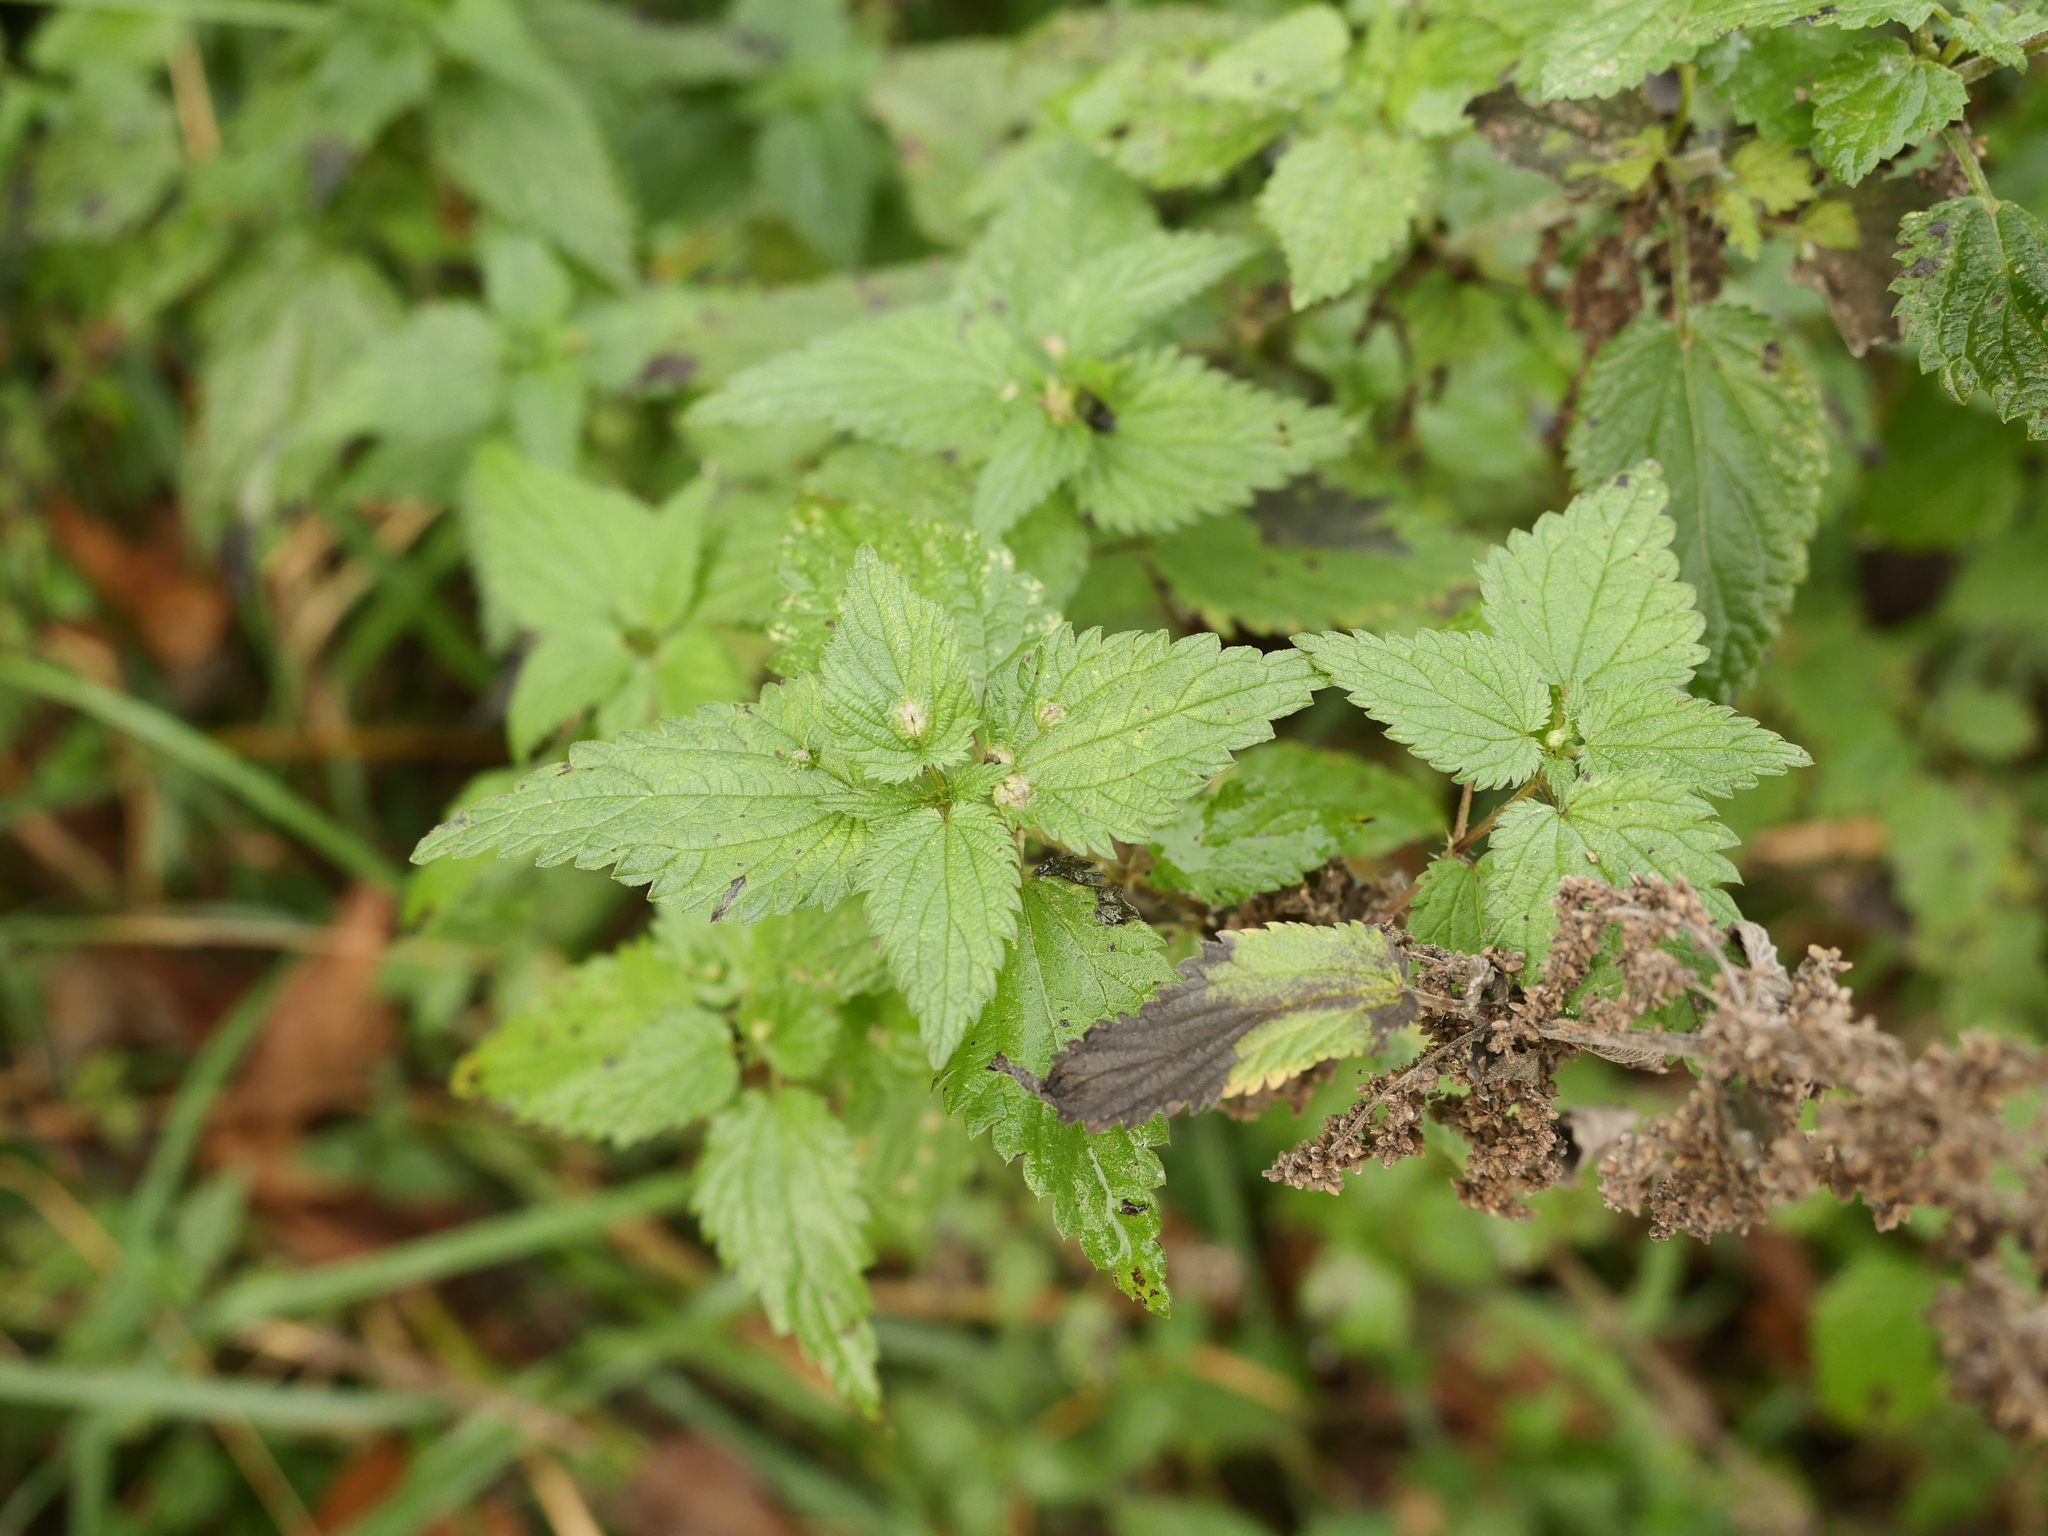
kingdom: Plantae
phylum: Tracheophyta
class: Magnoliopsida
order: Rosales
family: Urticaceae
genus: Urtica
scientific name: Urtica dioica
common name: Common nettle
